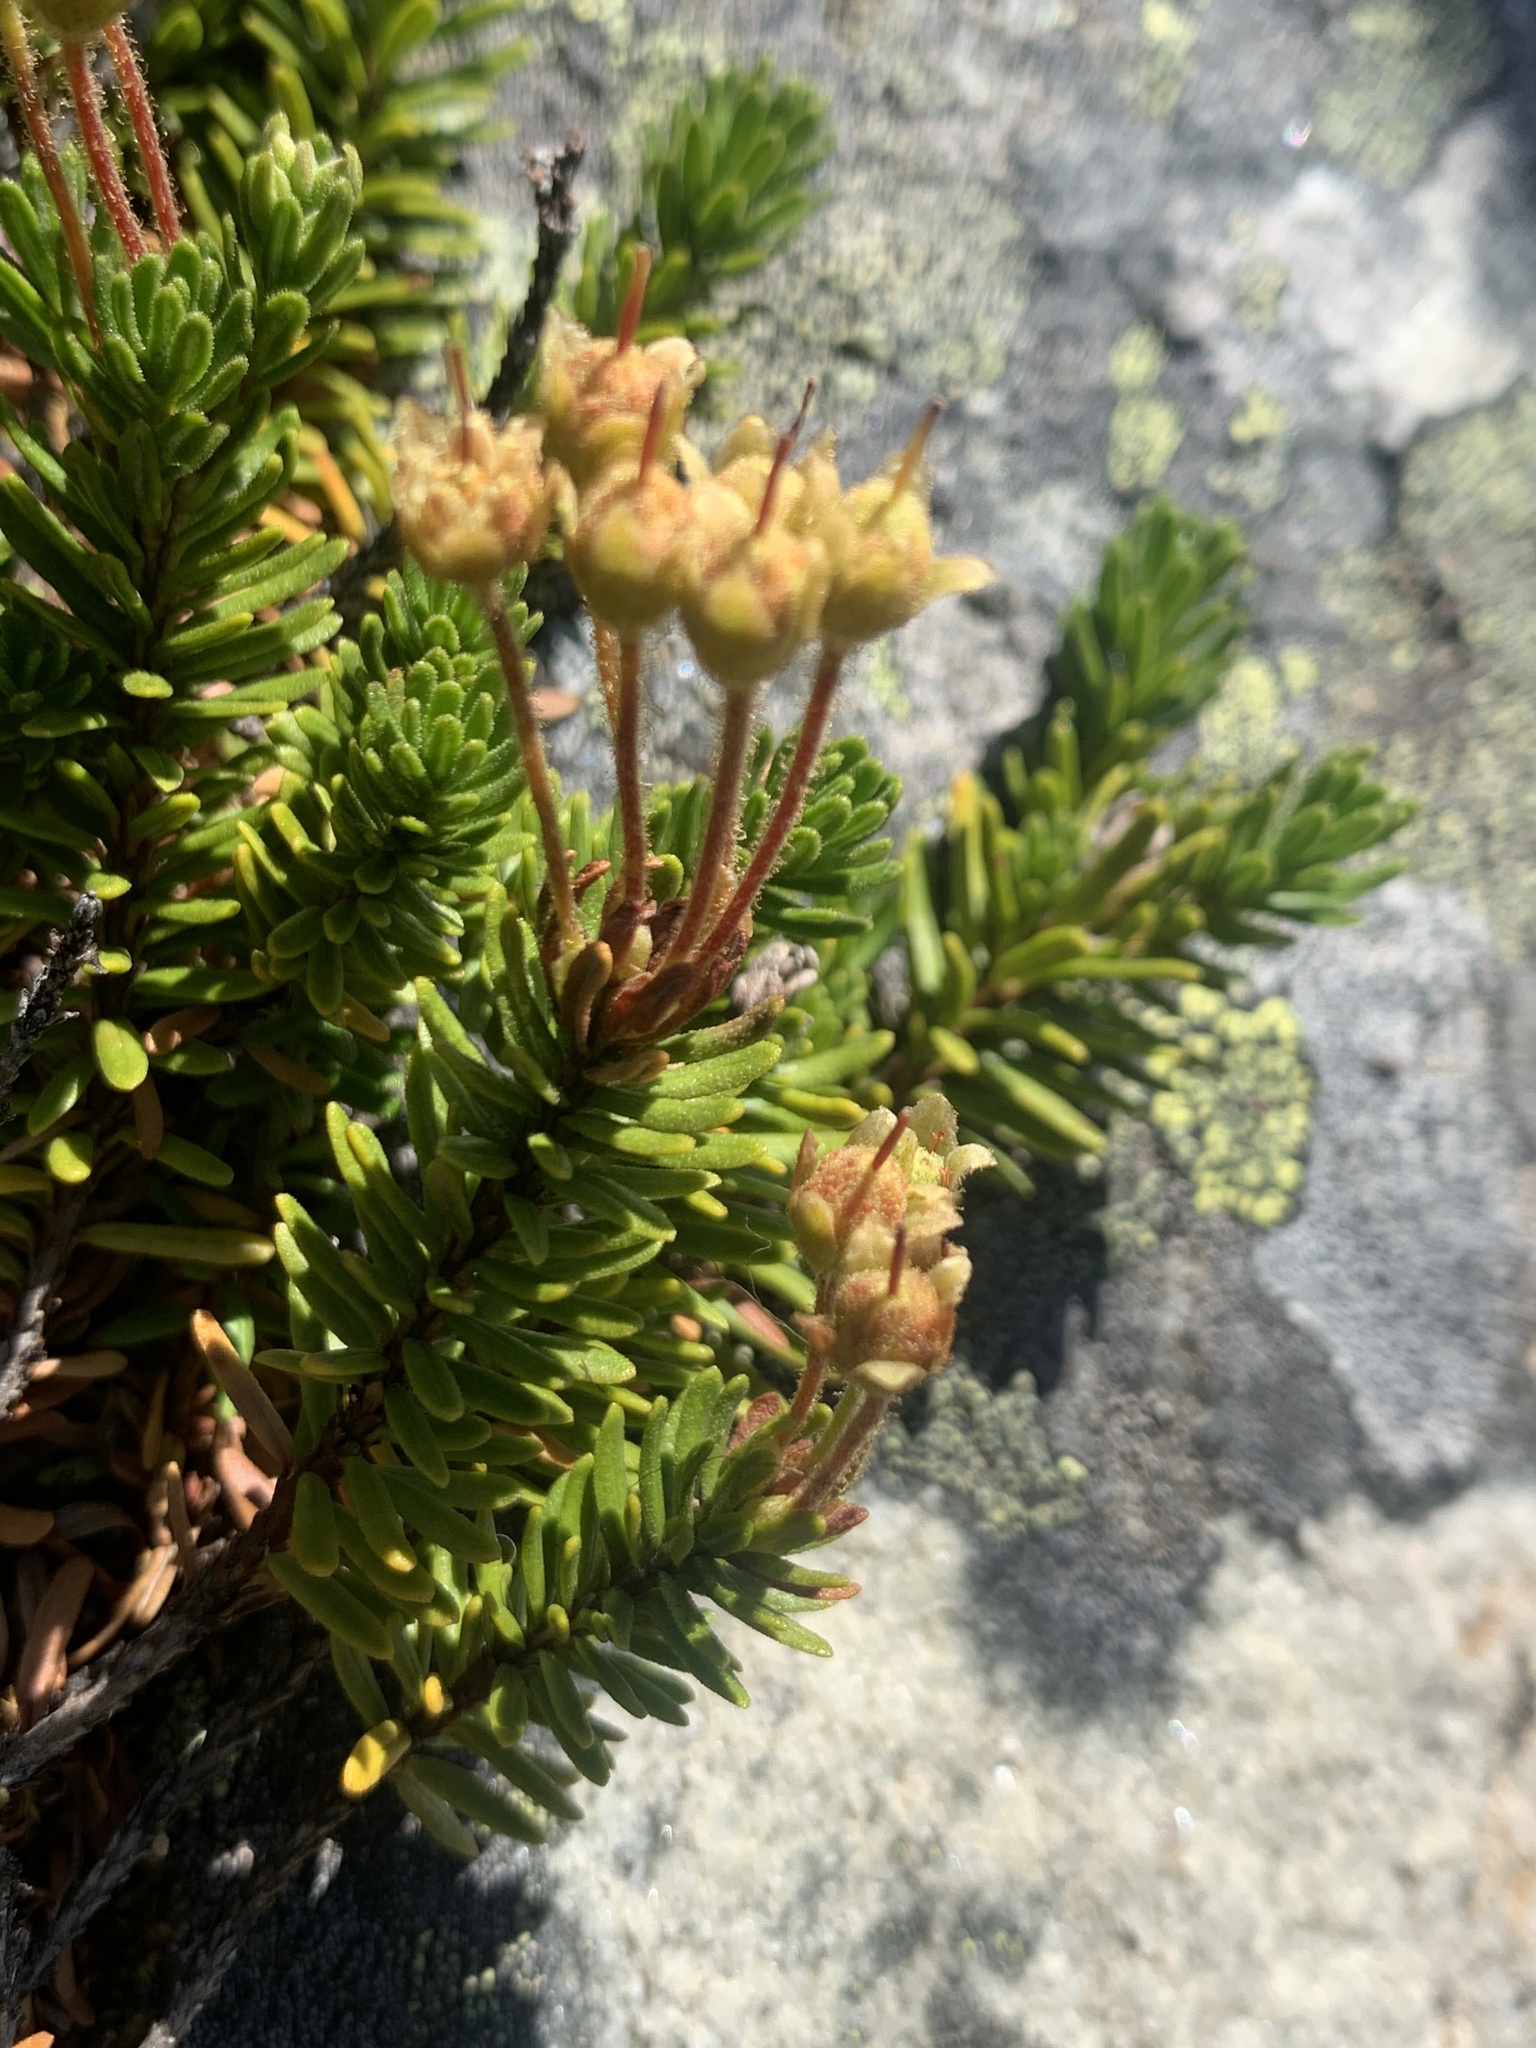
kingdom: Plantae
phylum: Tracheophyta
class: Magnoliopsida
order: Ericales
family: Ericaceae
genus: Phyllodoce
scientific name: Phyllodoce glanduliflora
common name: Cream mountain heather
